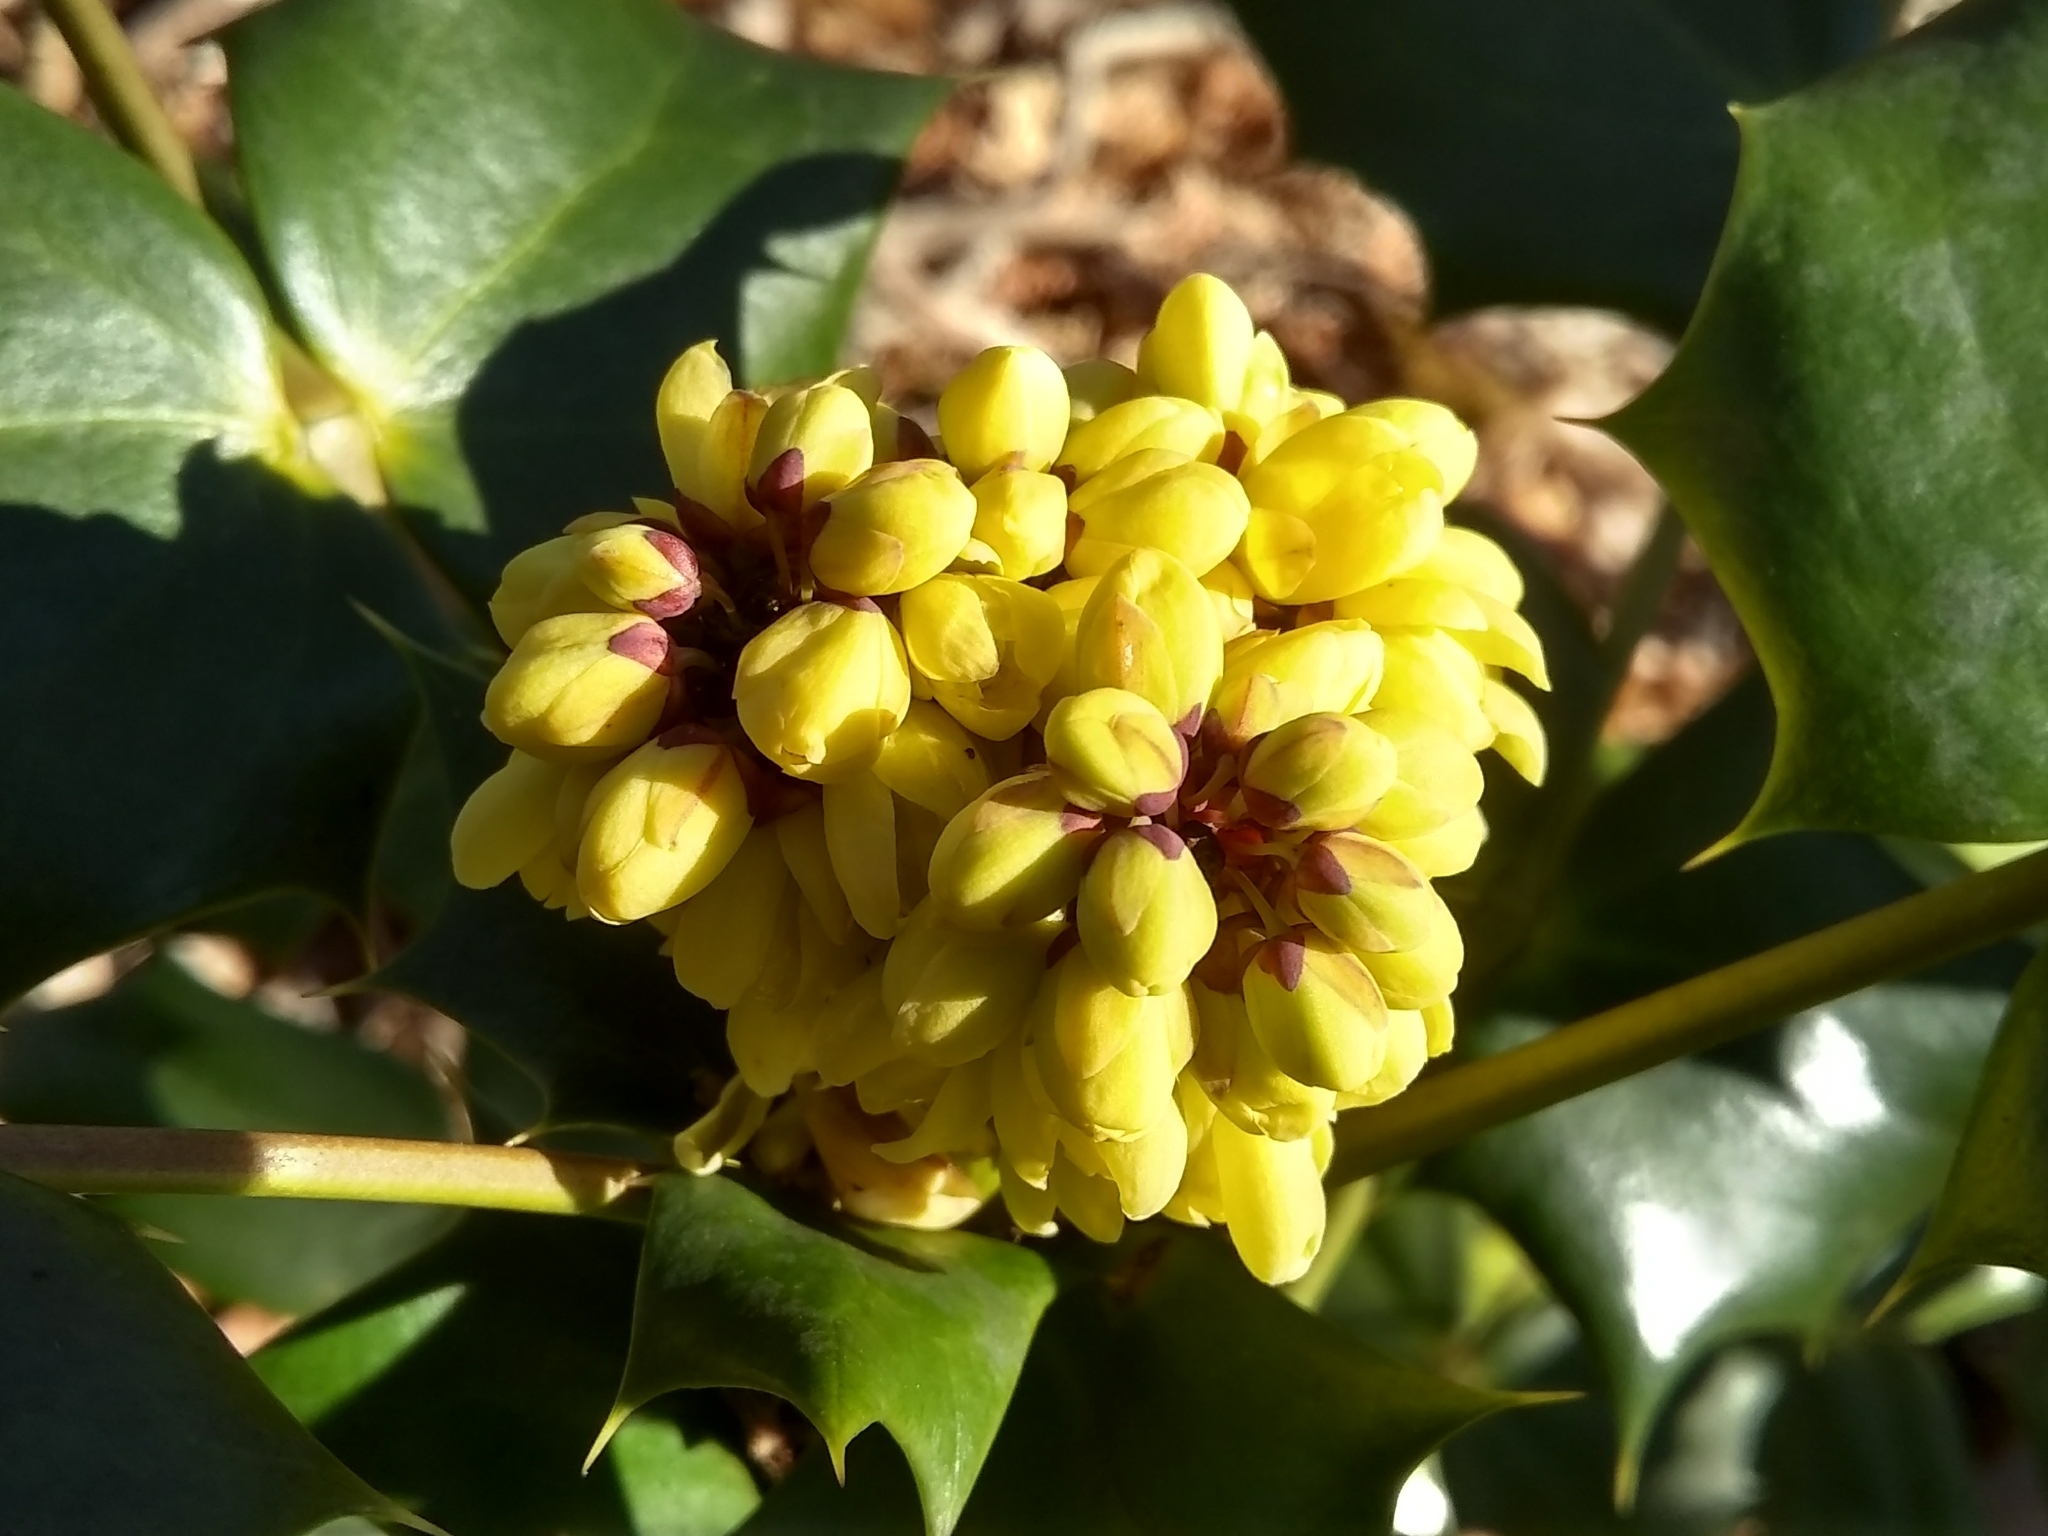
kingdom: Plantae
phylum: Tracheophyta
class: Magnoliopsida
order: Ranunculales
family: Berberidaceae
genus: Mahonia
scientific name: Mahonia bealei
